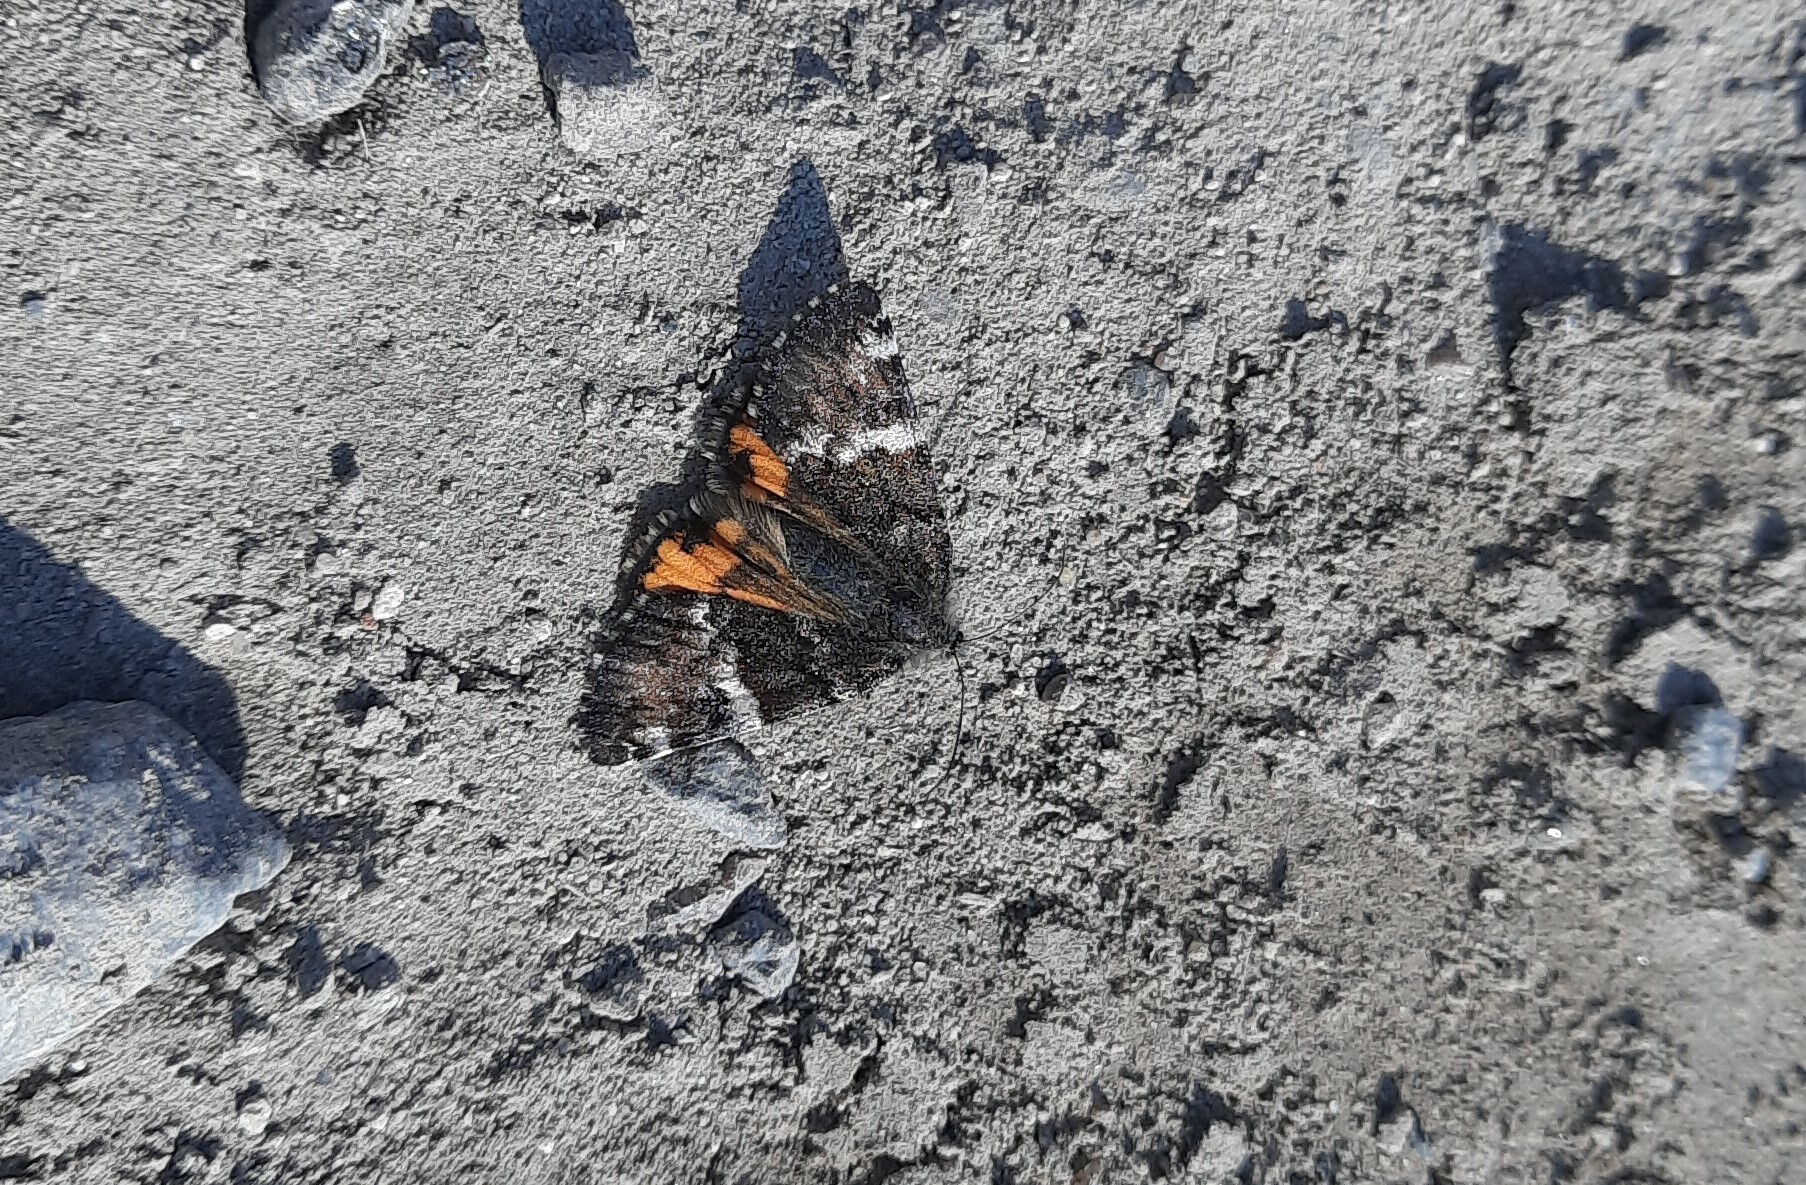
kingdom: Animalia
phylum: Arthropoda
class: Insecta
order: Lepidoptera
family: Geometridae
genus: Archiearis
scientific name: Archiearis parthenias
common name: Orange underwing
